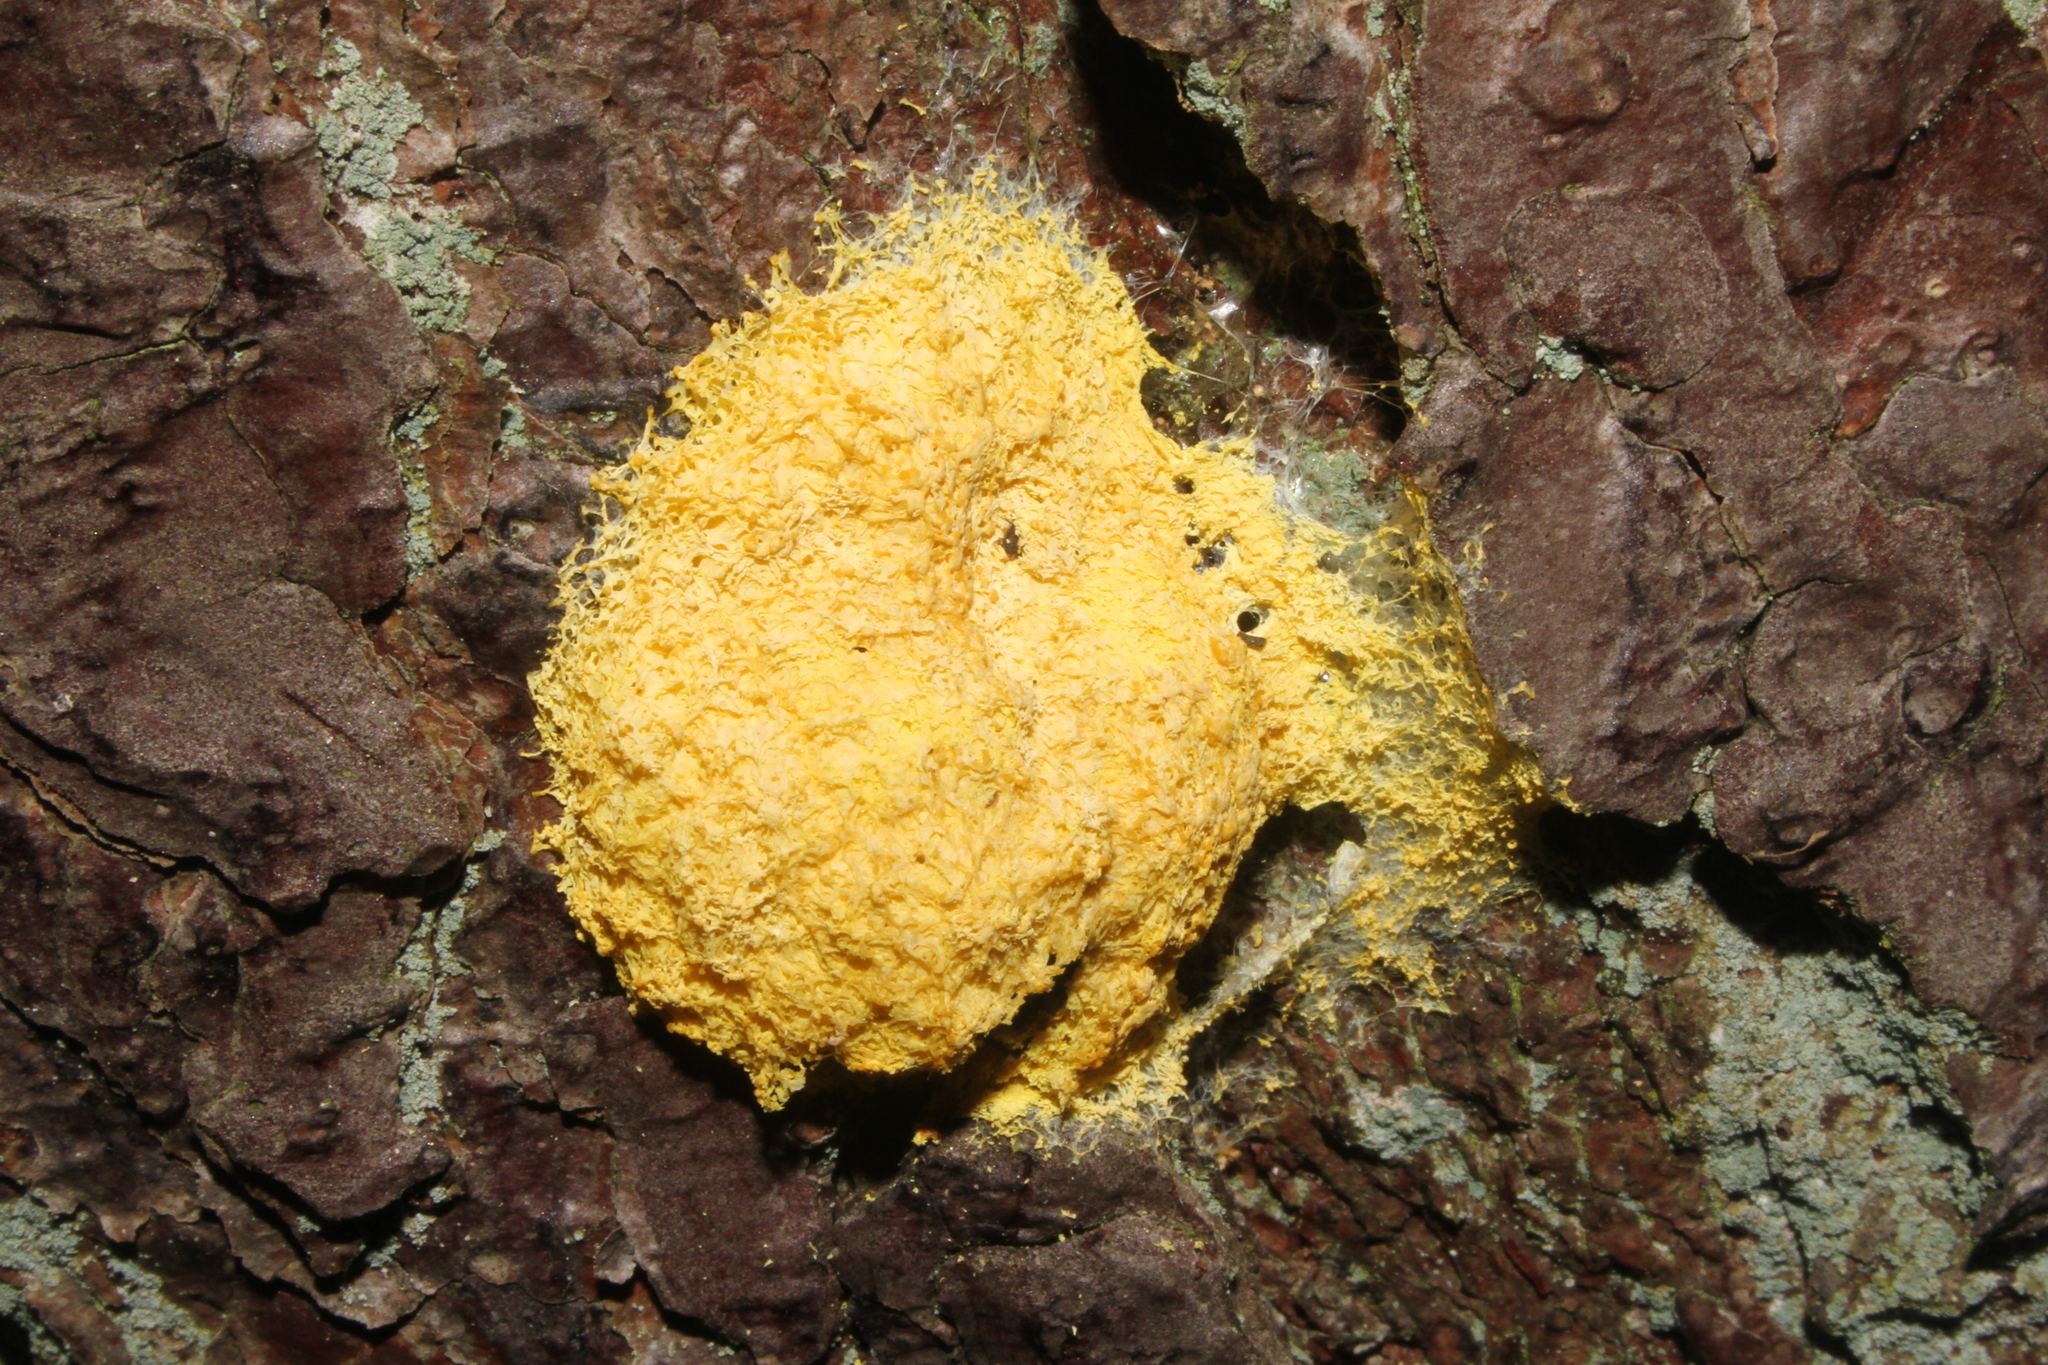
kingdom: Protozoa
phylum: Mycetozoa
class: Myxomycetes
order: Physarales
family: Physaraceae
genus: Fuligo
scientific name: Fuligo septica
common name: Dog vomit slime mold
